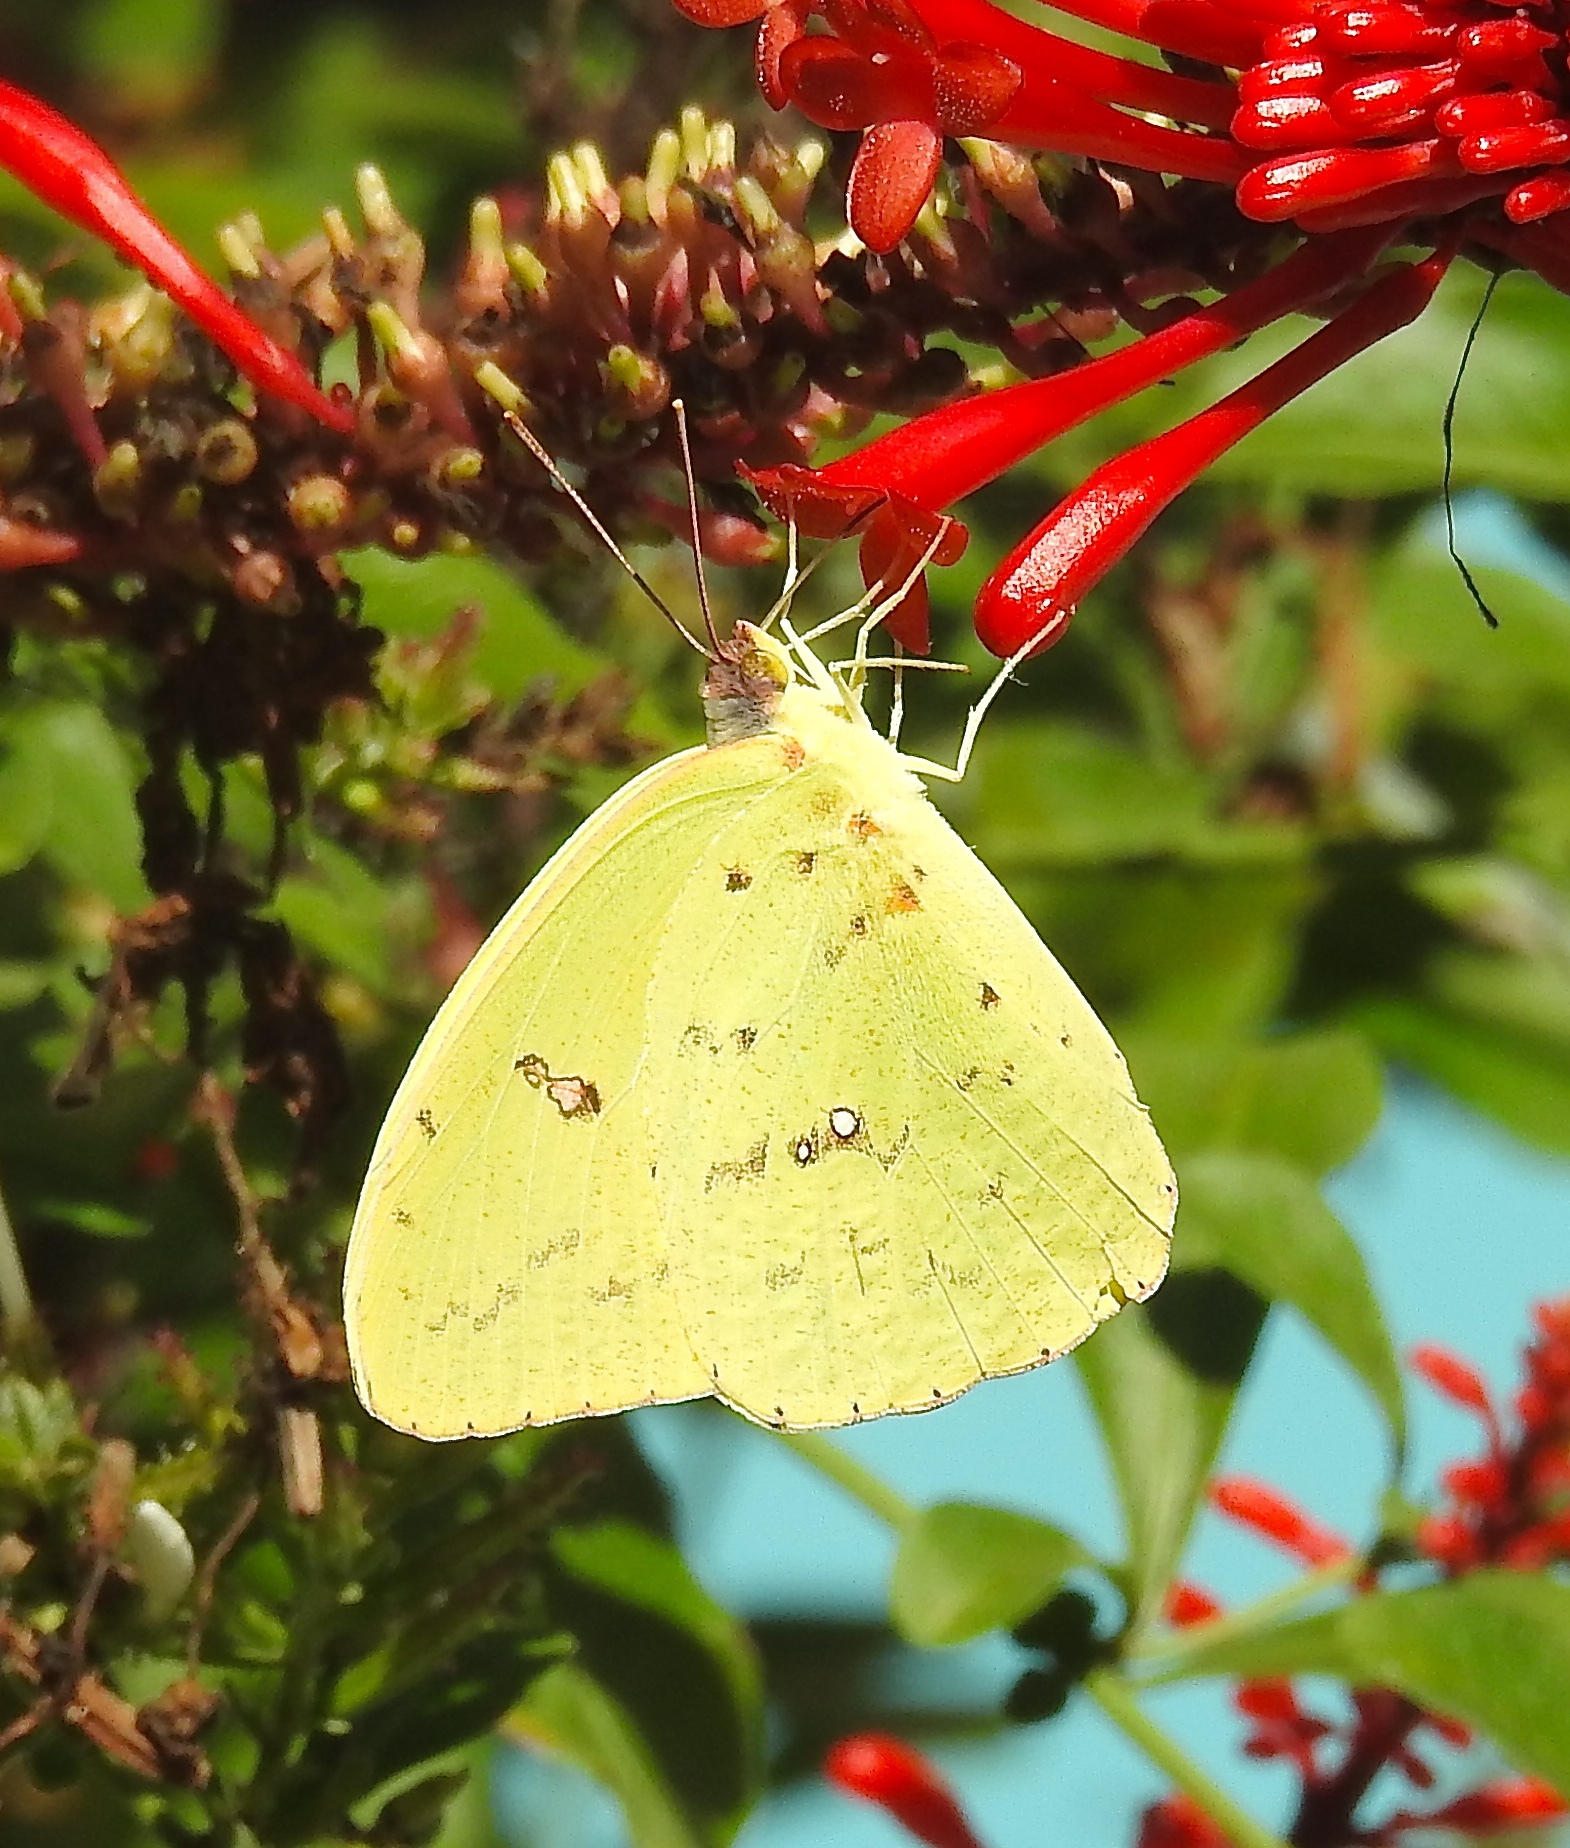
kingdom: Animalia
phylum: Arthropoda
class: Insecta
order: Lepidoptera
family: Pieridae
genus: Phoebis
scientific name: Phoebis sennae
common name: Cloudless sulphur
